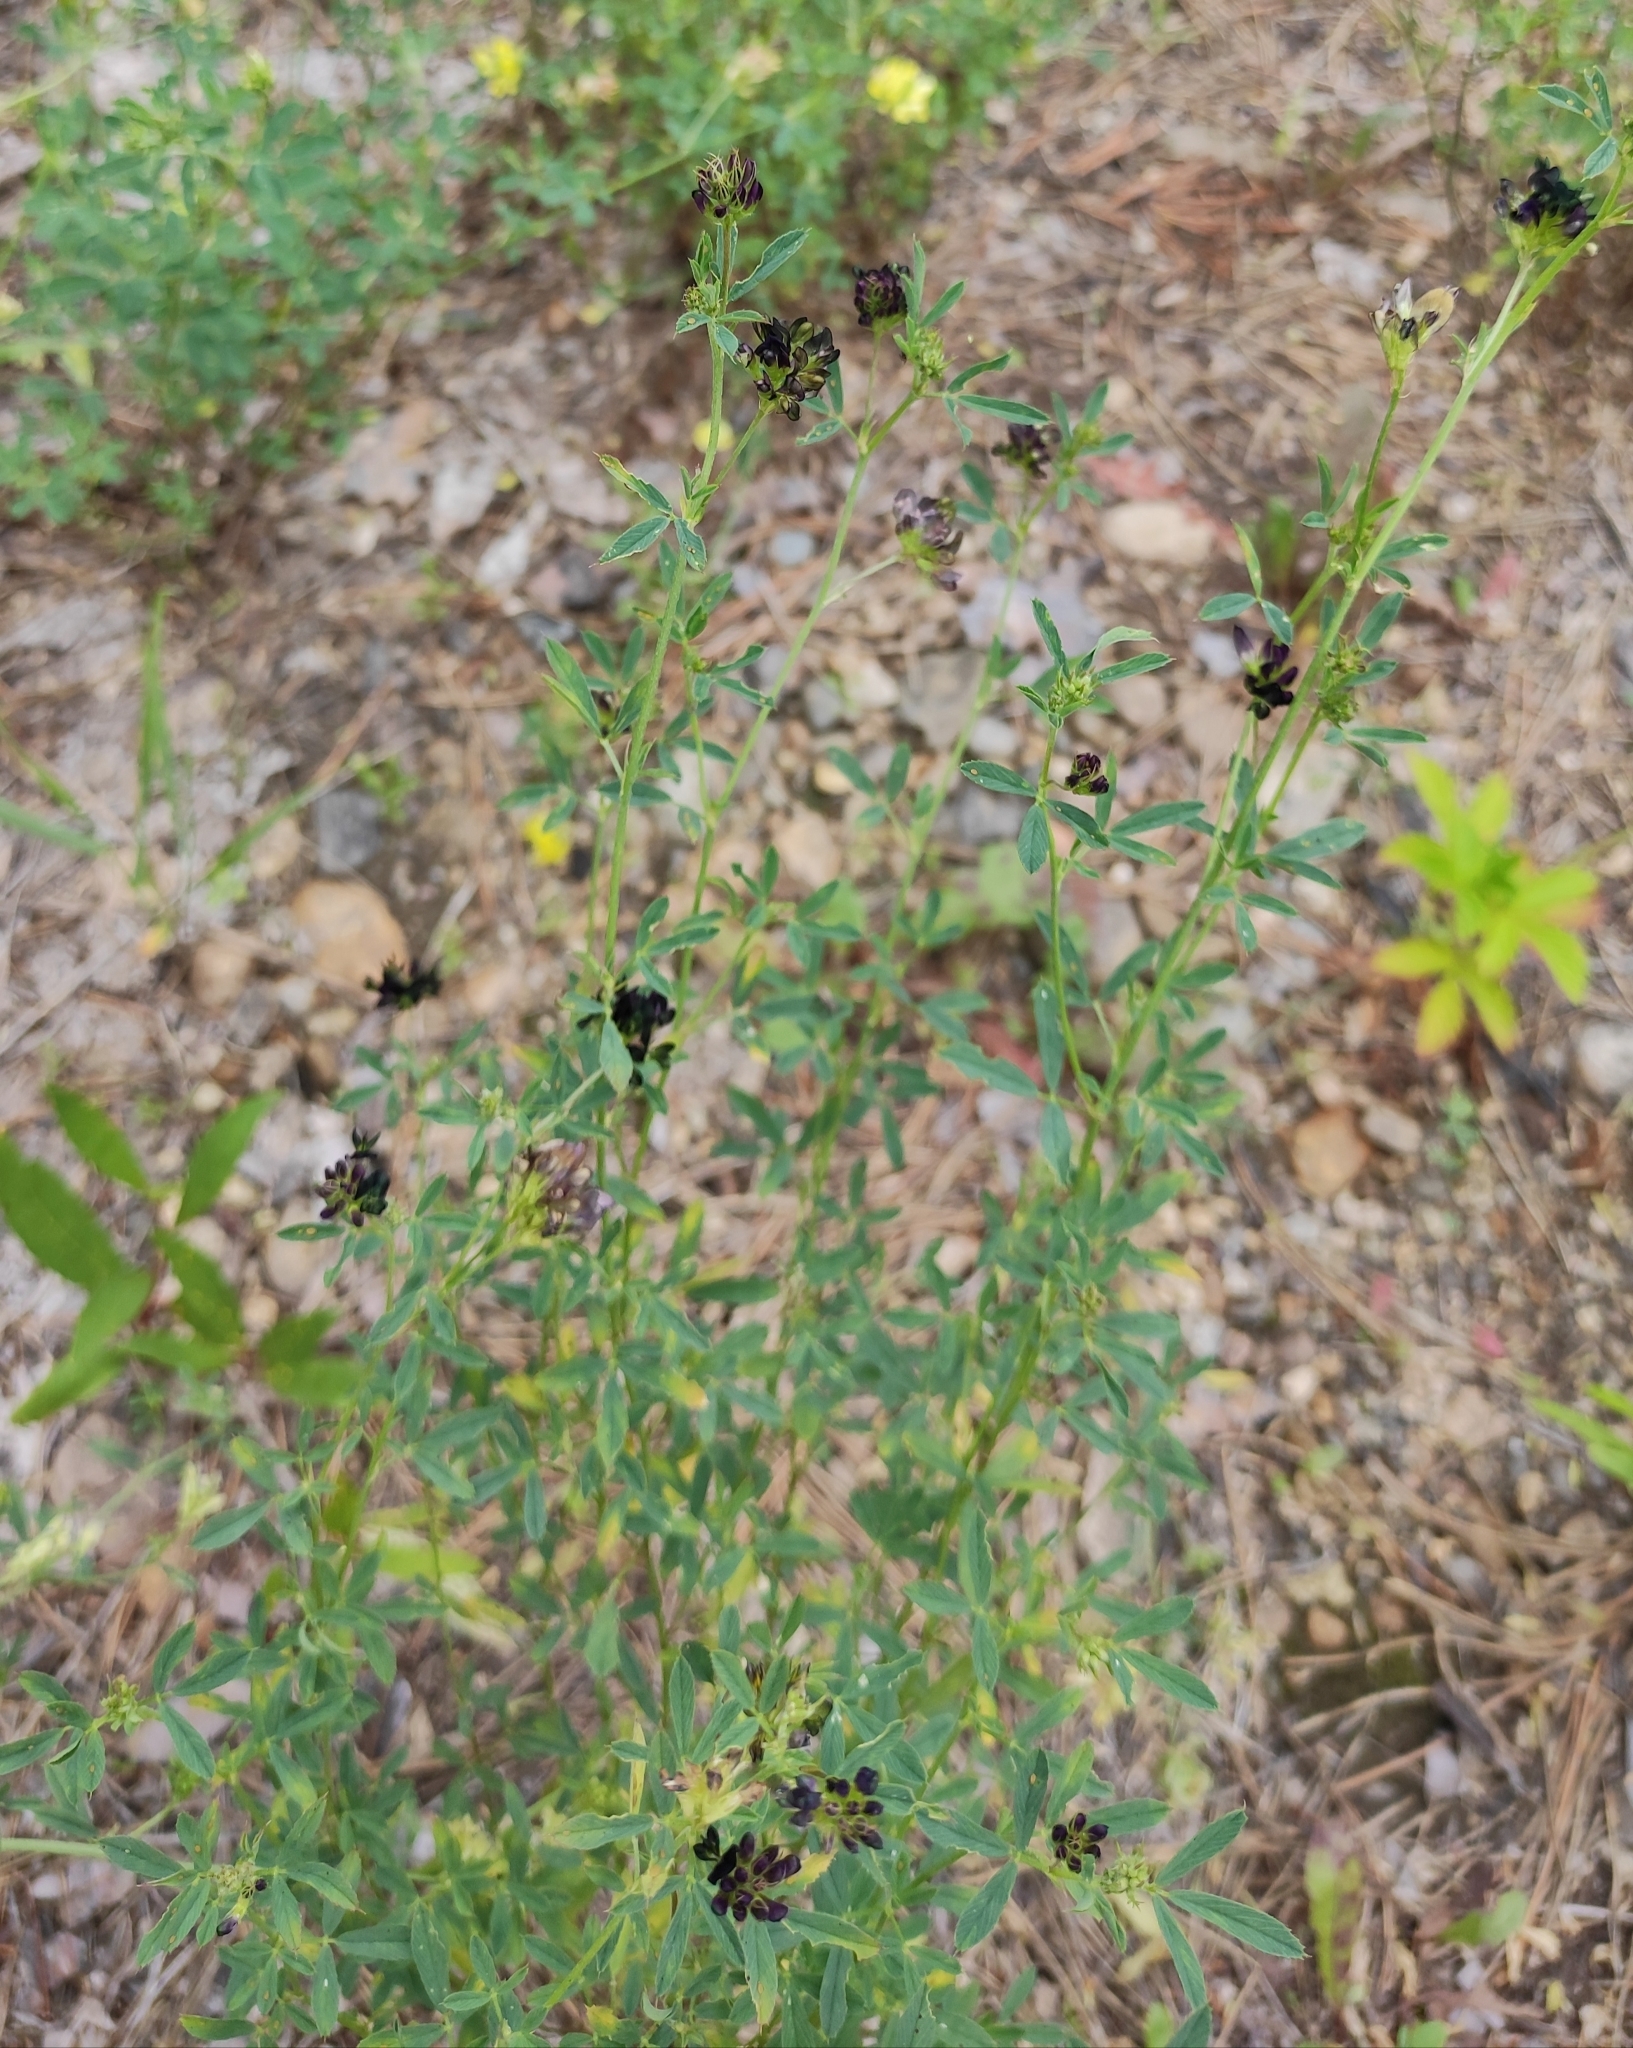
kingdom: Plantae
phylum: Tracheophyta
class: Magnoliopsida
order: Fabales
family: Fabaceae
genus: Medicago
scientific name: Medicago varia
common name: Sand lucerne
